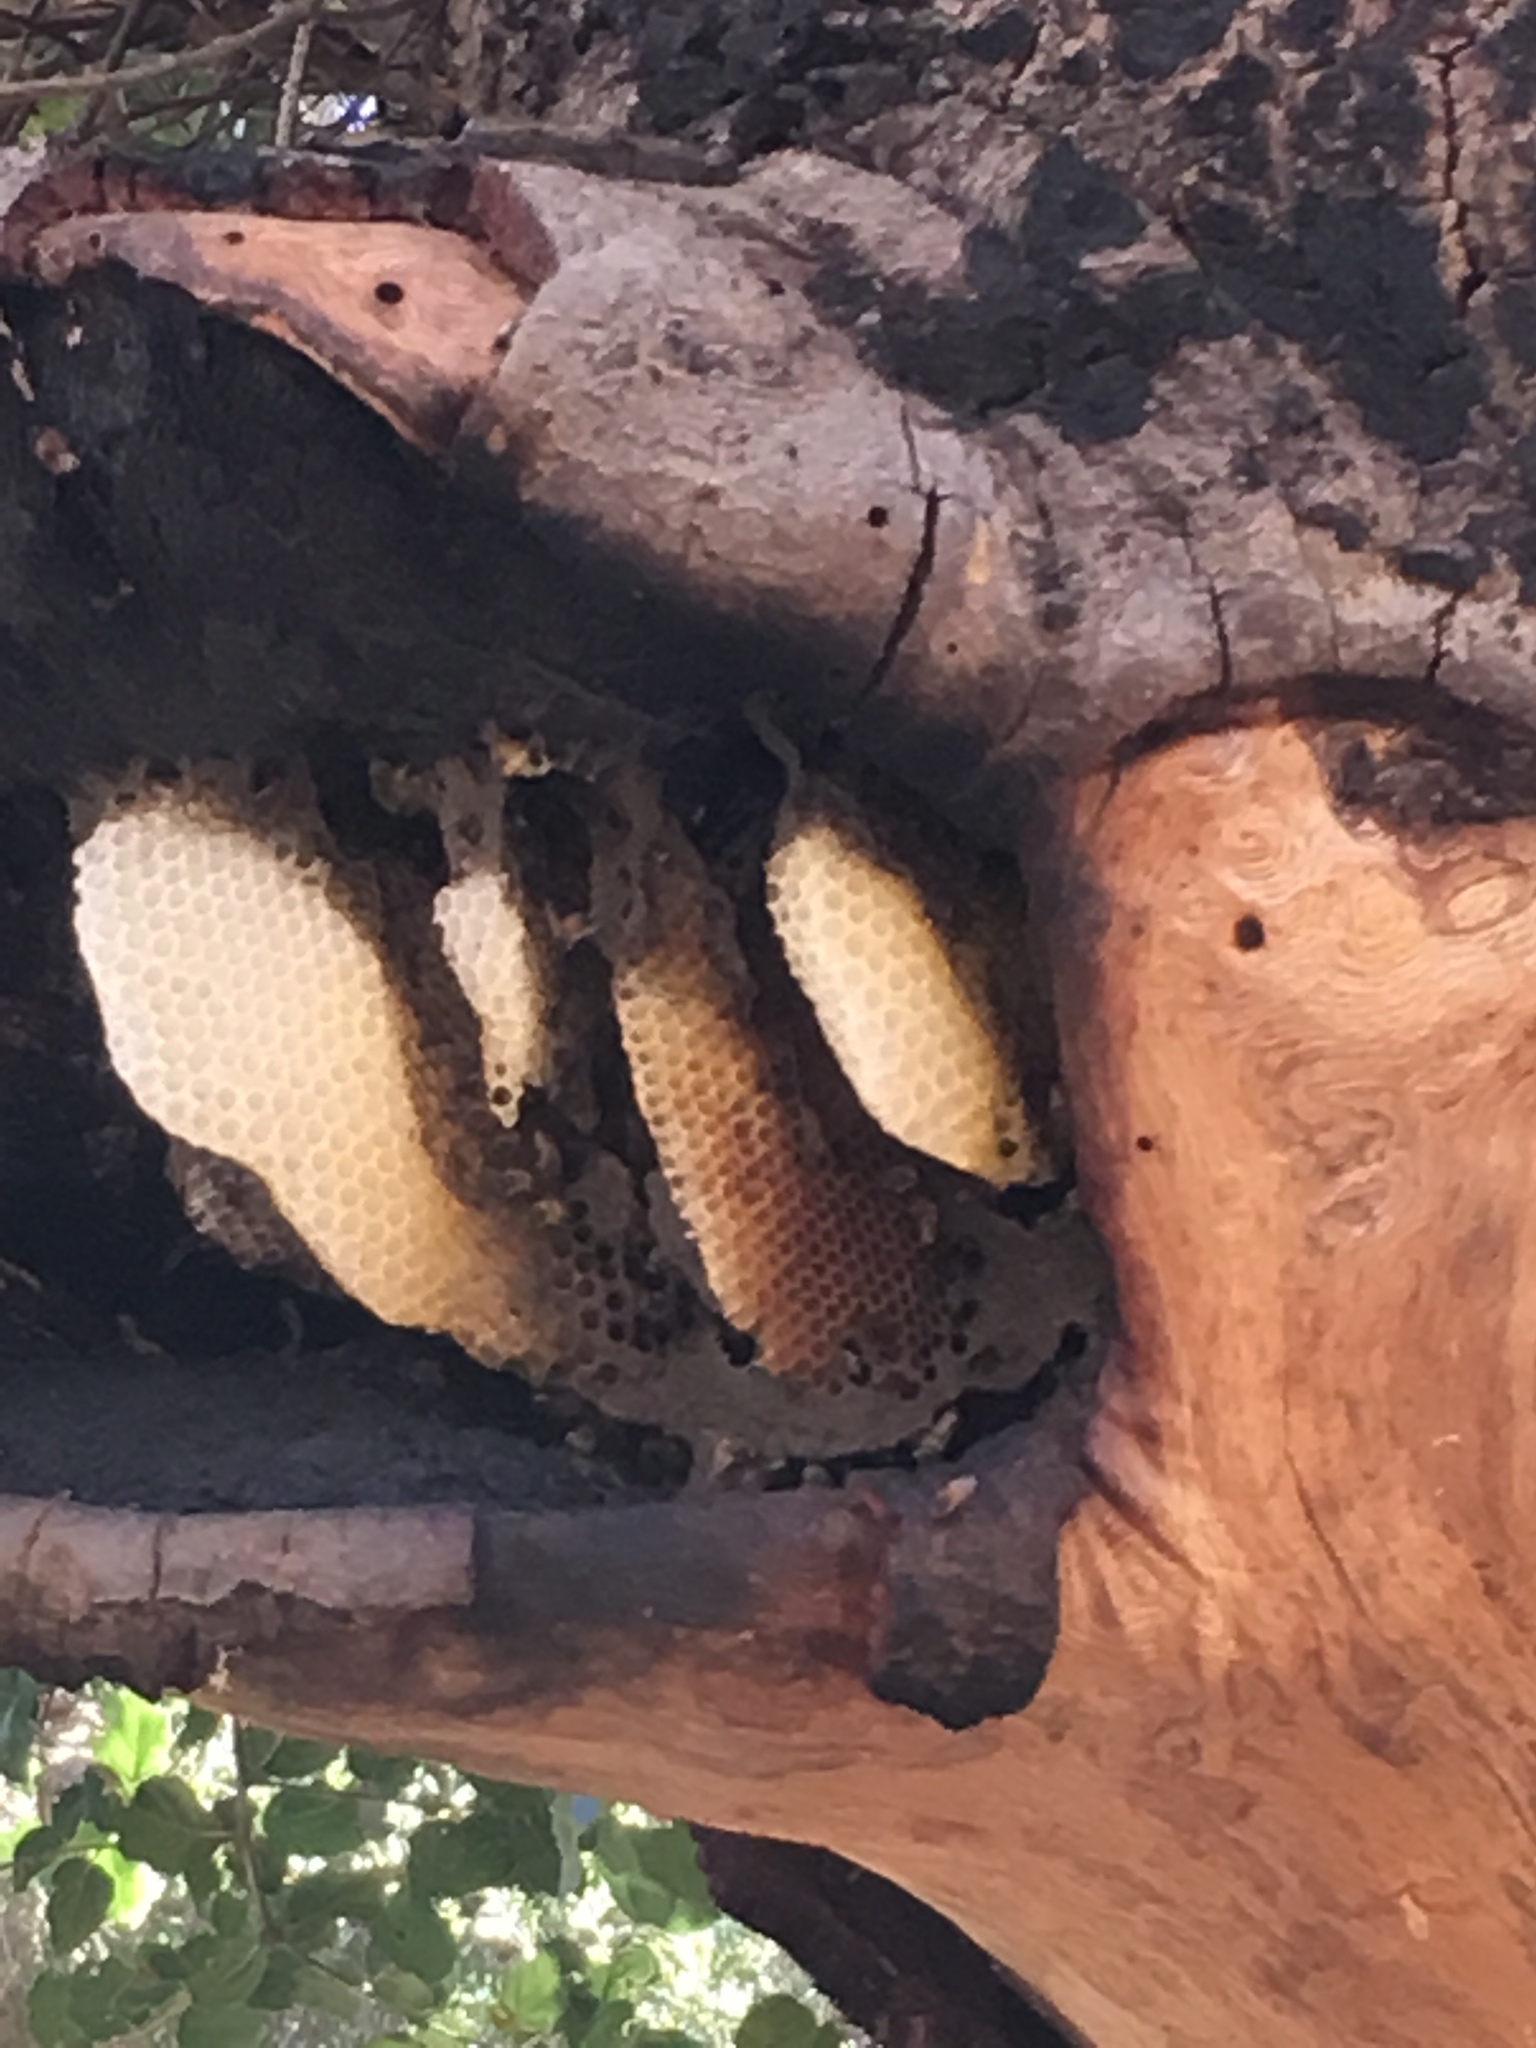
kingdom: Animalia
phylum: Arthropoda
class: Insecta
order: Hymenoptera
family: Apidae
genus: Apis
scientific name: Apis mellifera
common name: Honey bee
